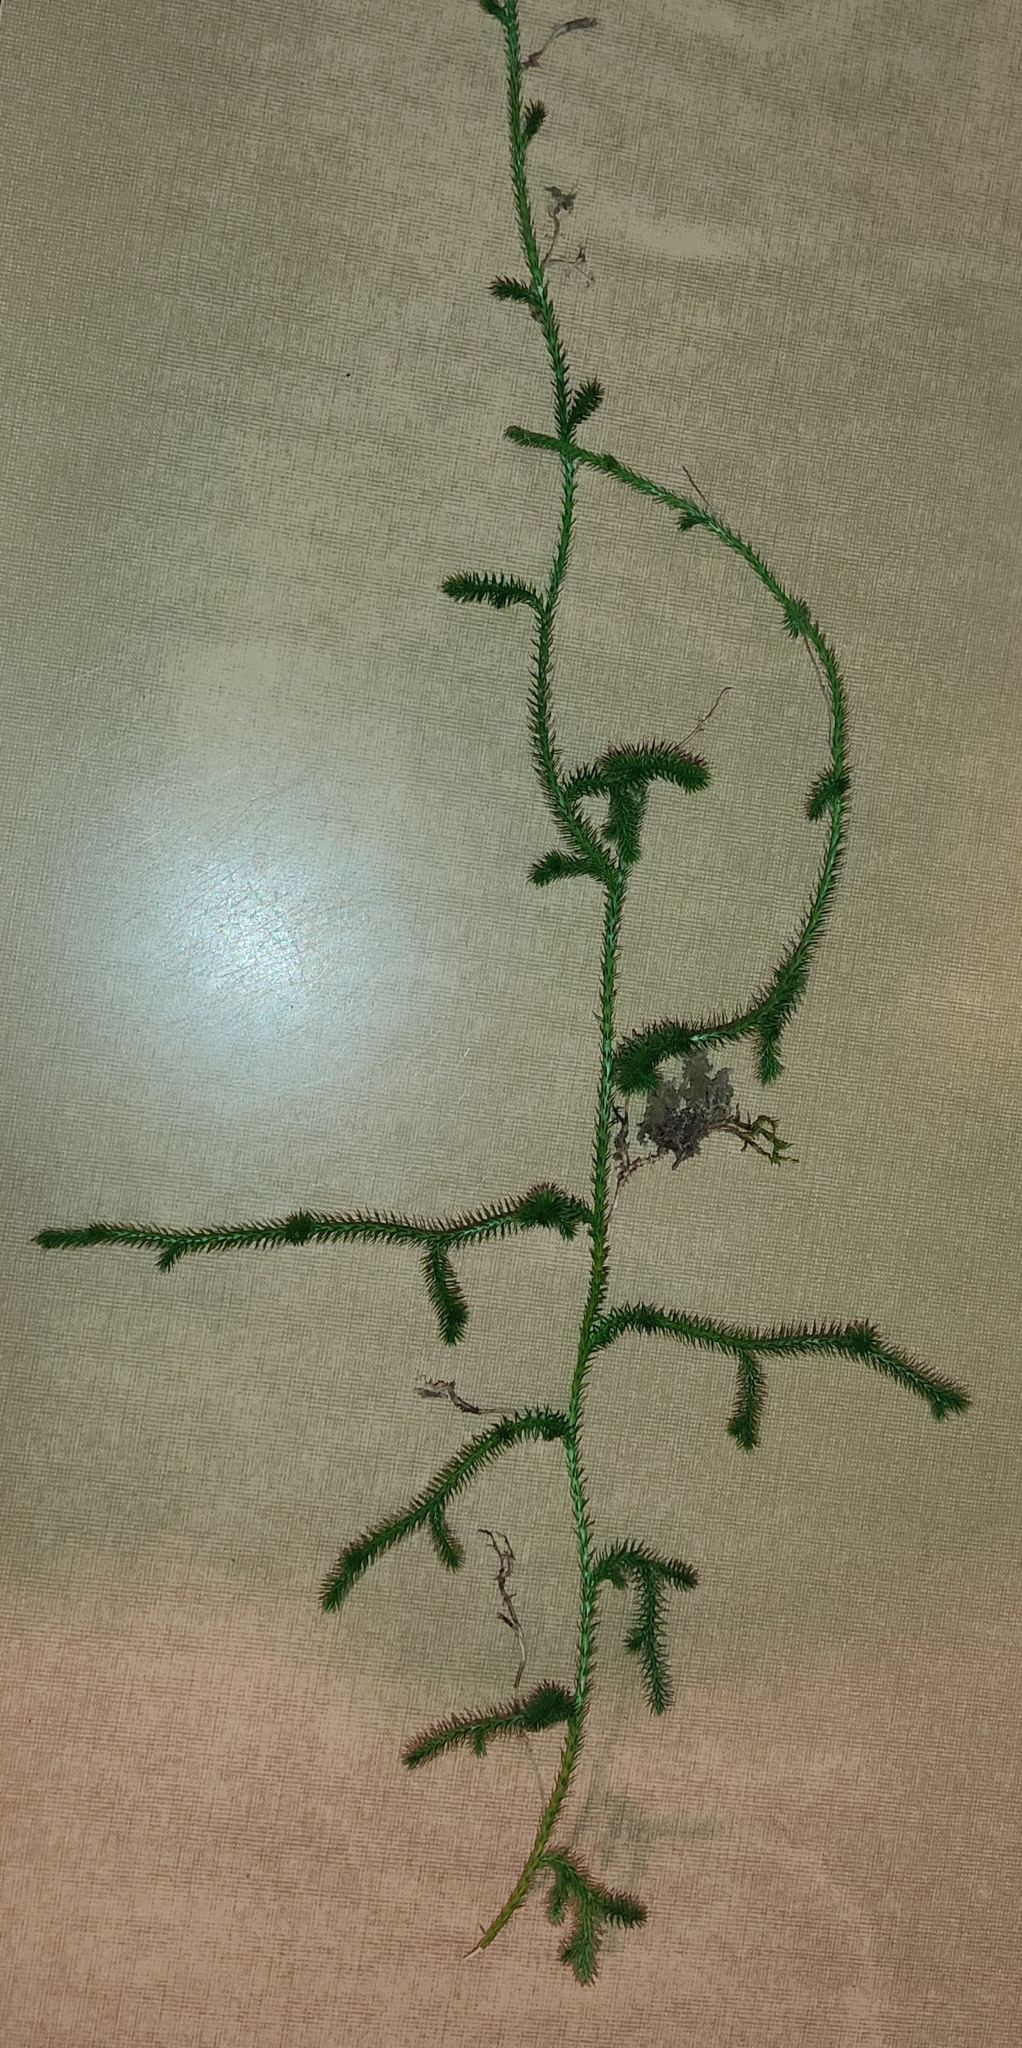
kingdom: Plantae
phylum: Tracheophyta
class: Lycopodiopsida
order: Lycopodiales
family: Lycopodiaceae
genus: Lycopodium
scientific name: Lycopodium clavatum
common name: Stag's-horn clubmoss
